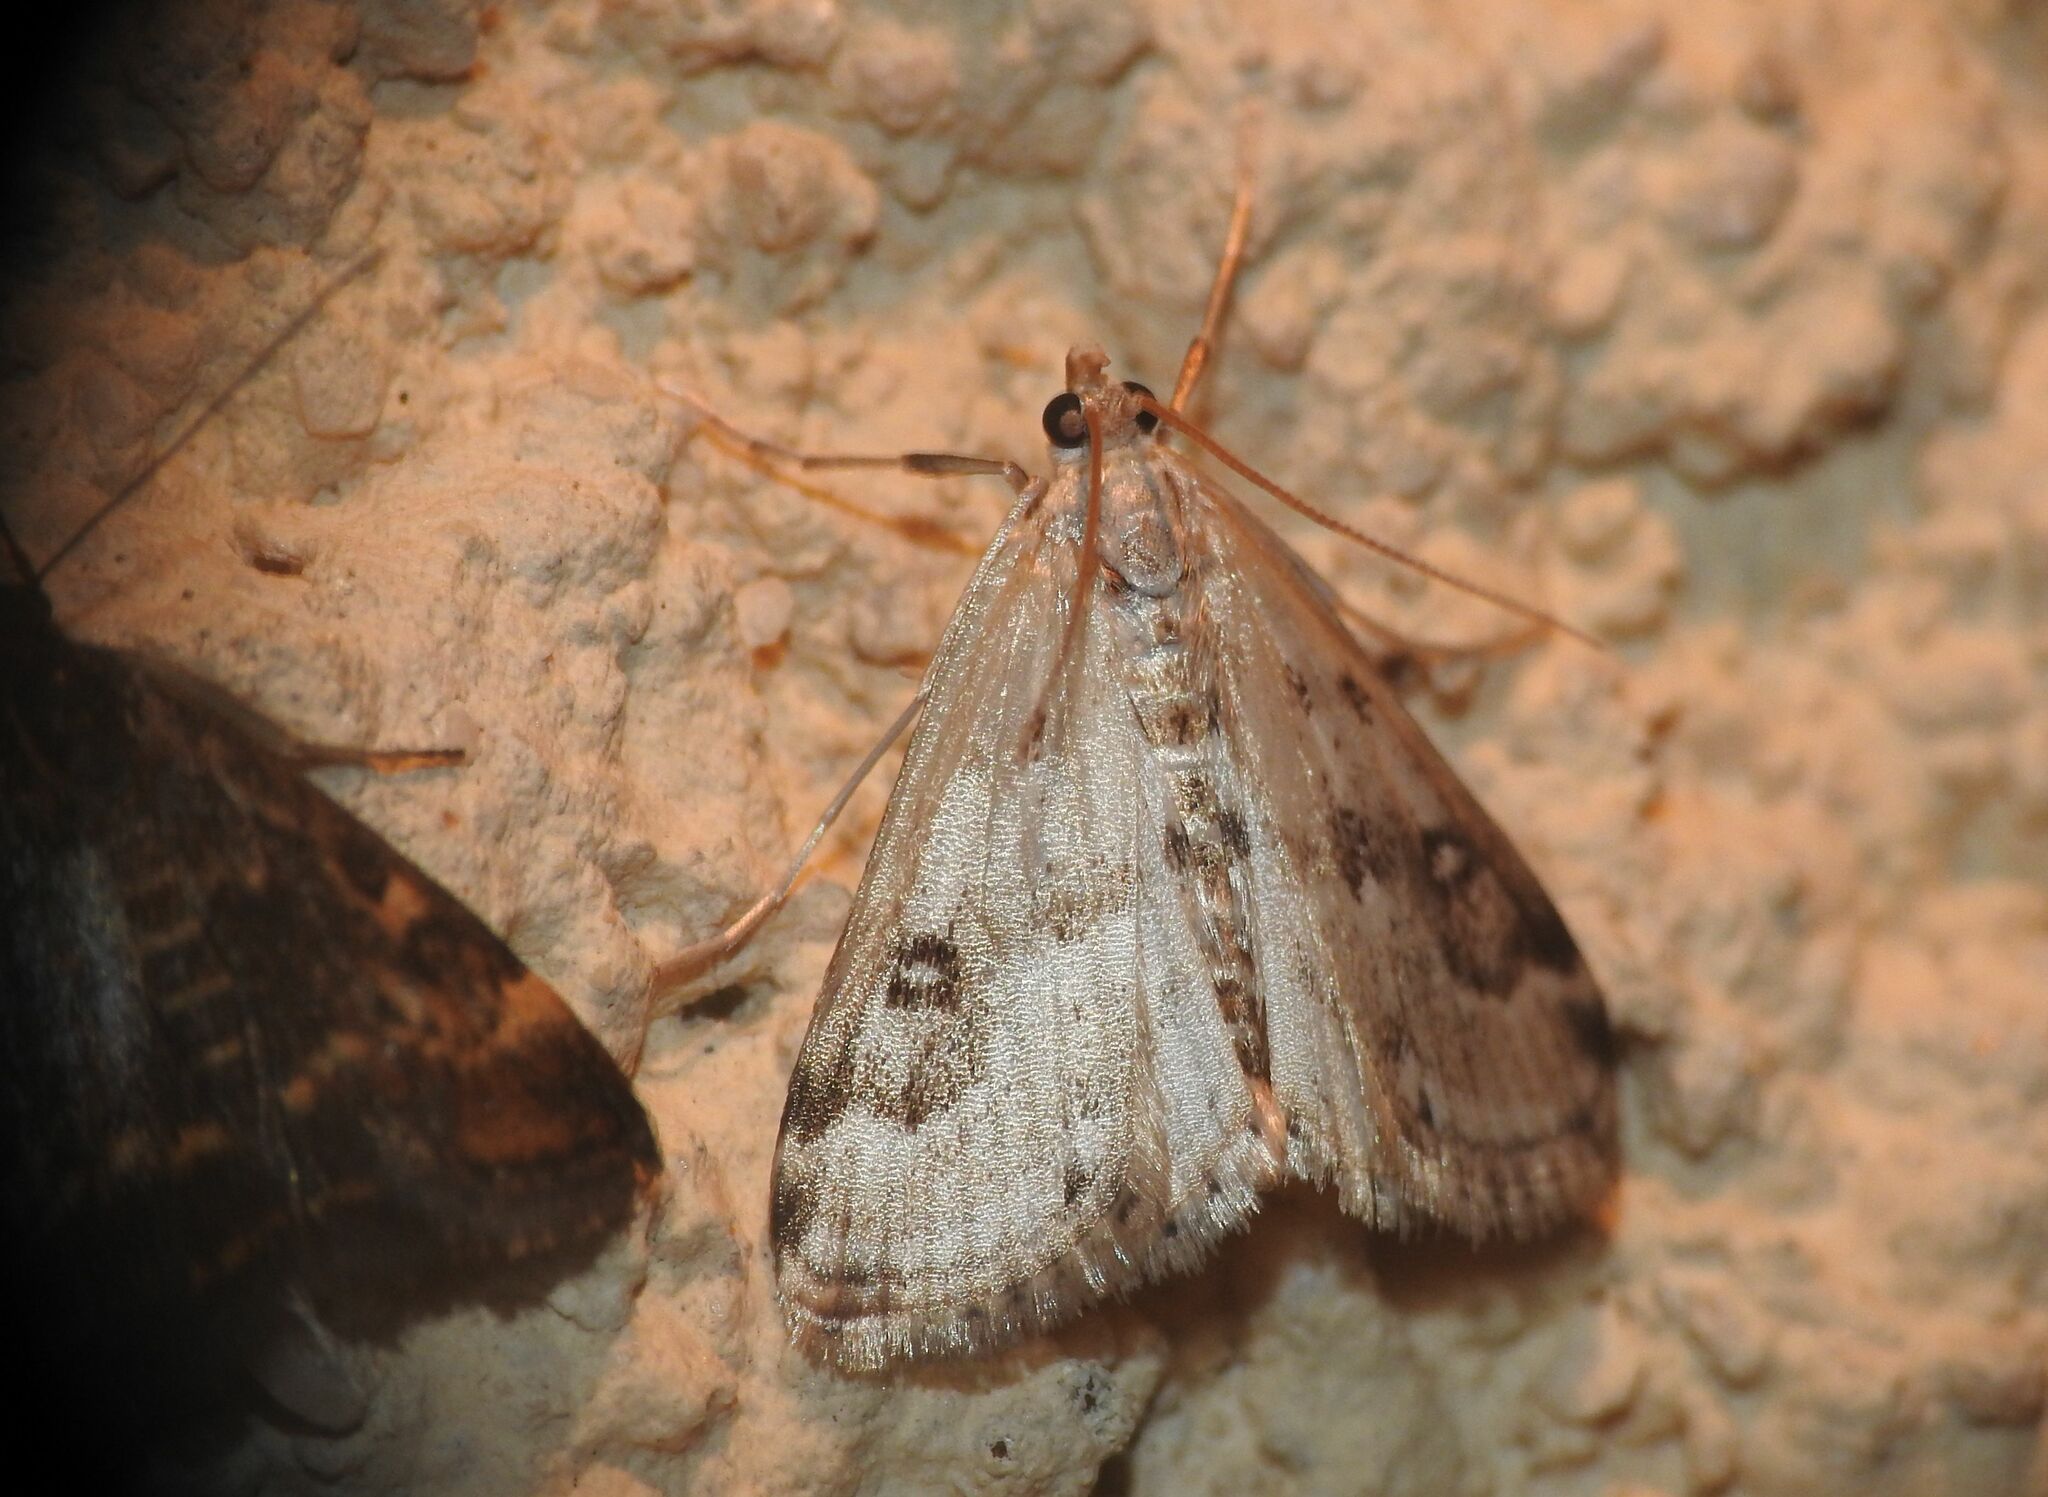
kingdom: Animalia
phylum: Arthropoda
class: Insecta
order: Lepidoptera
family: Crambidae
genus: Parapoynx
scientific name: Parapoynx stratiotata
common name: Ringed china-mark
